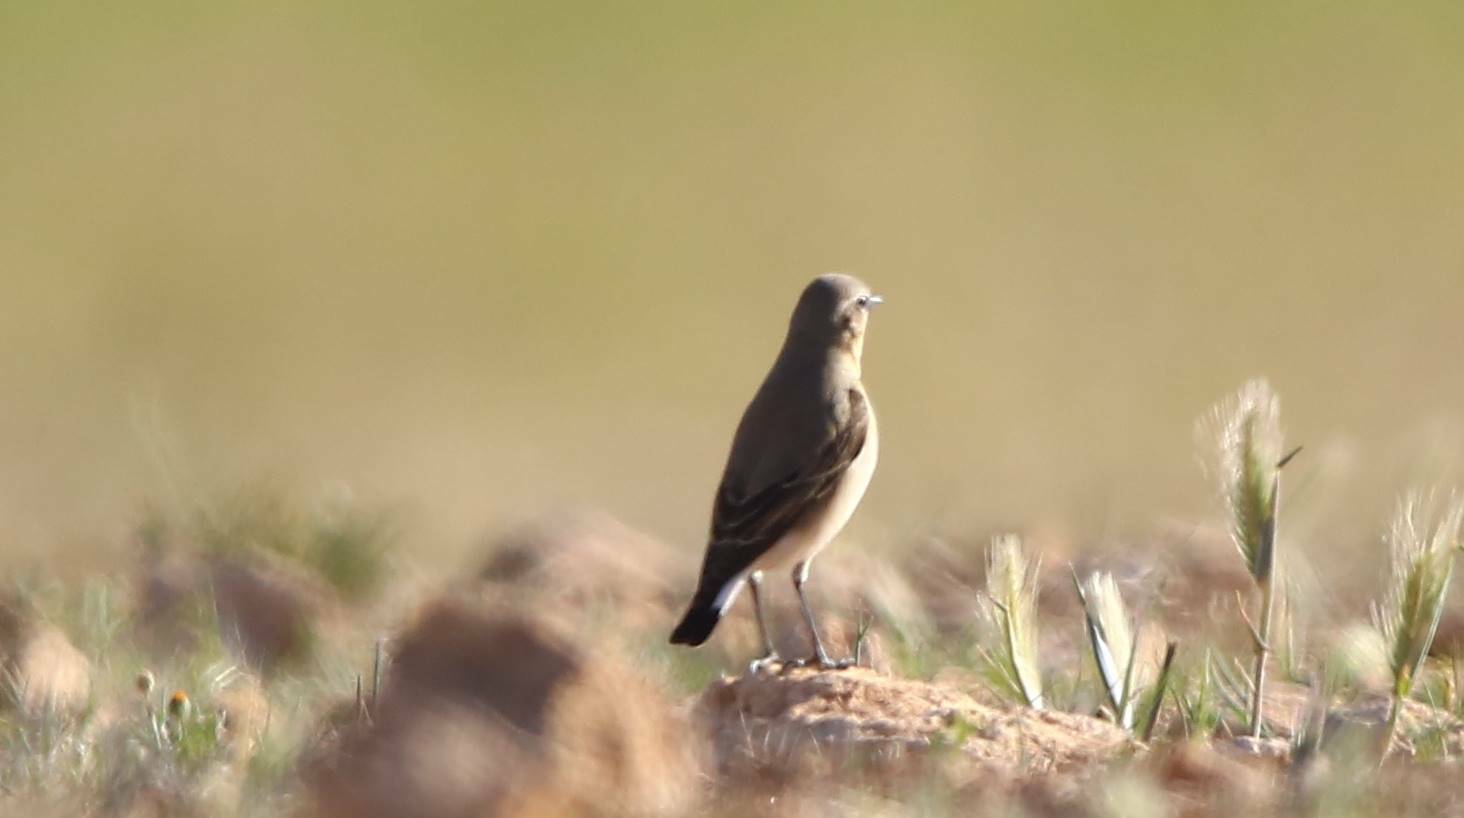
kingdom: Animalia
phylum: Chordata
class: Aves
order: Passeriformes
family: Muscicapidae
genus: Oenanthe
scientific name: Oenanthe oenanthe
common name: Northern wheatear
